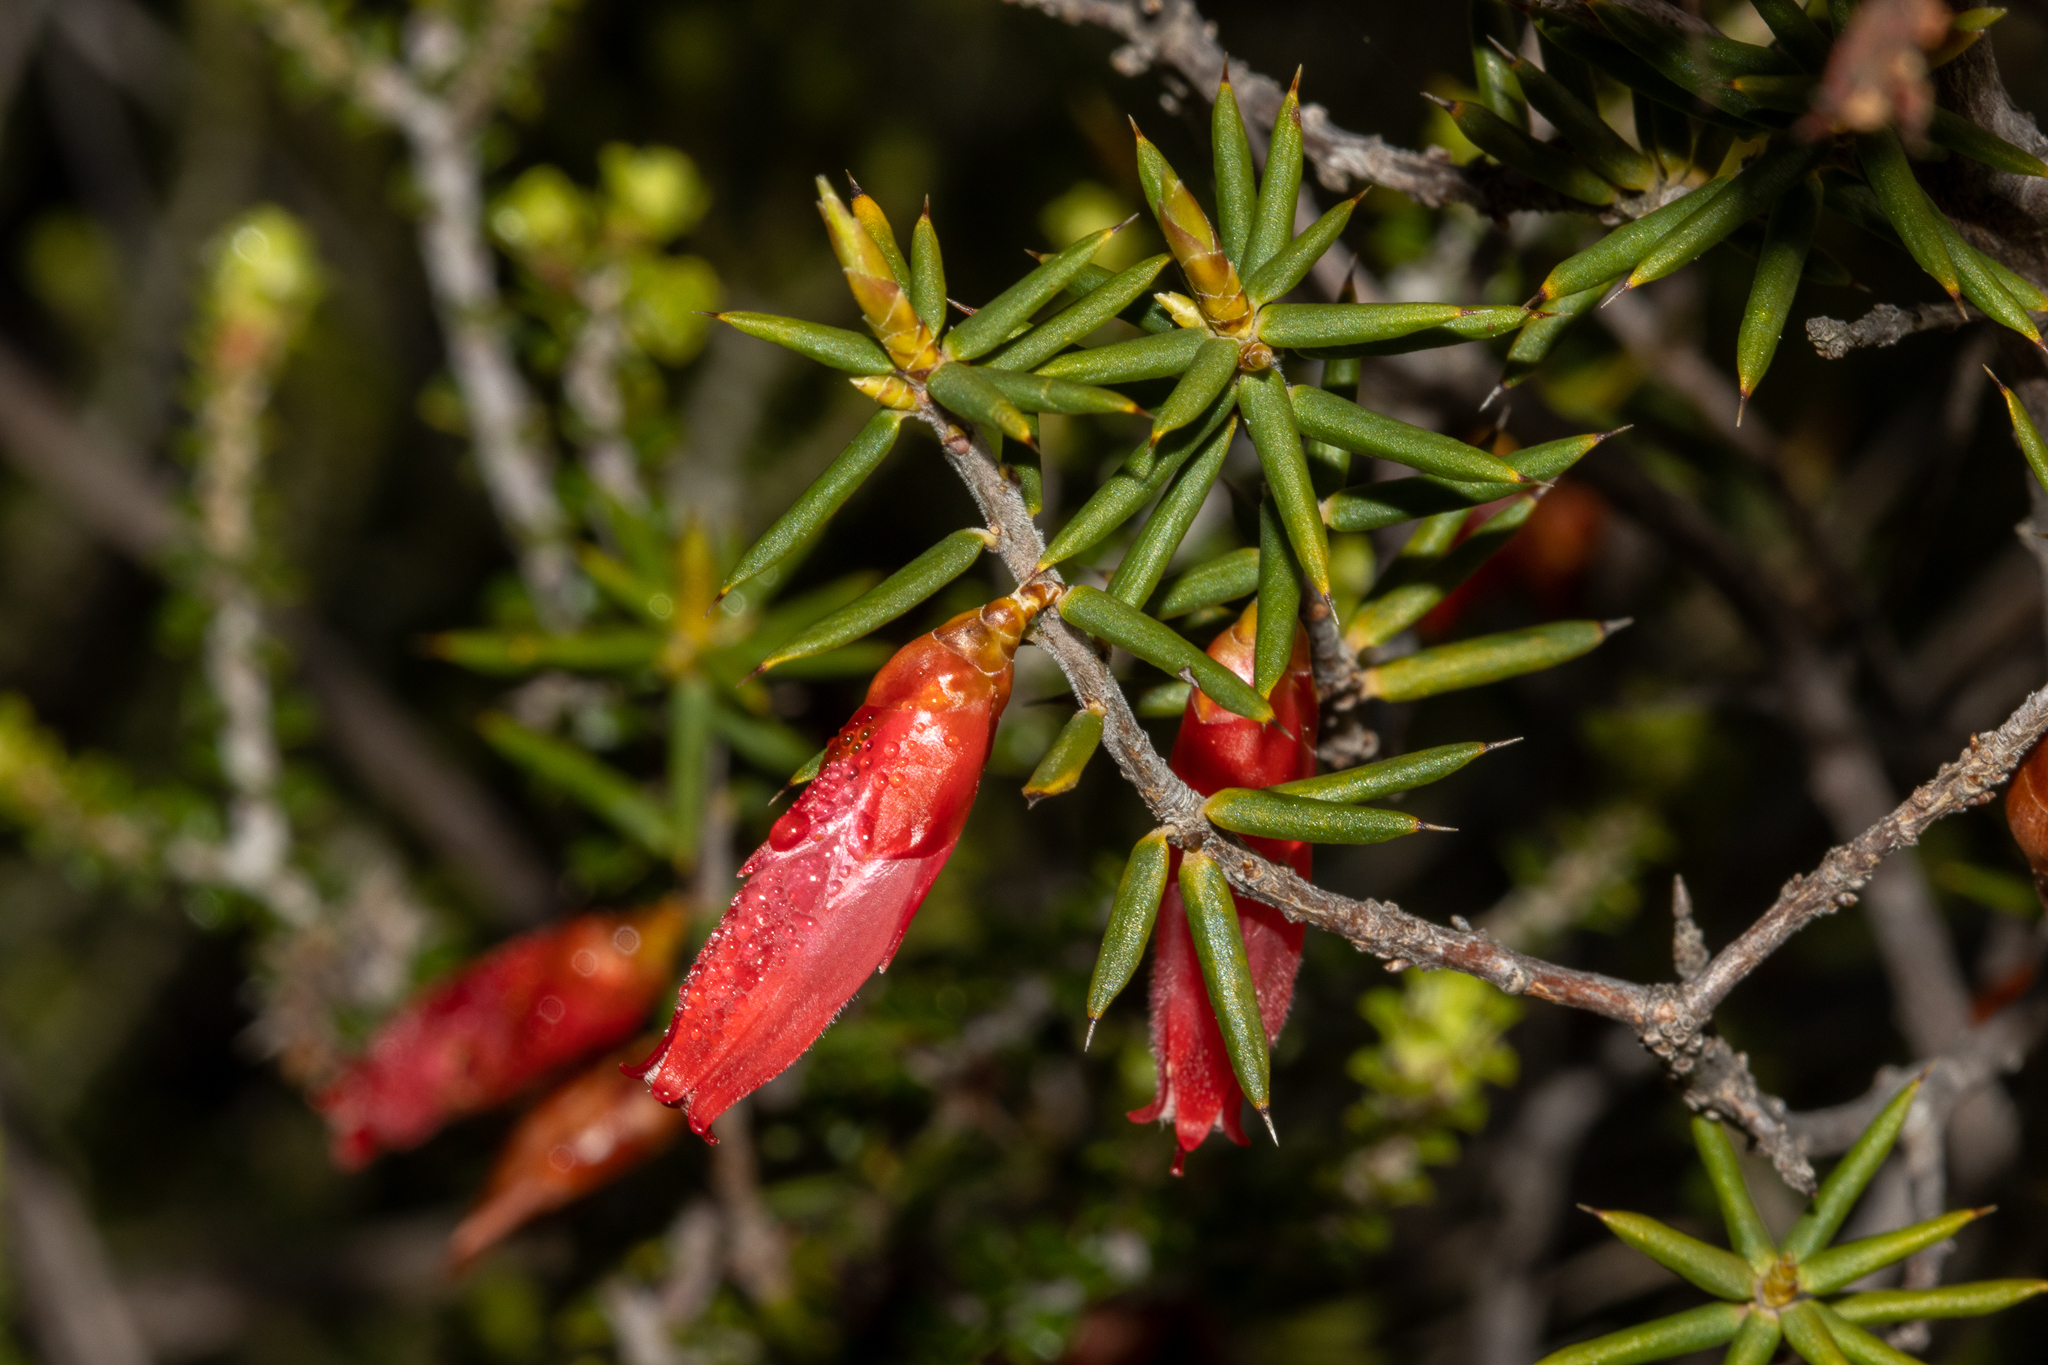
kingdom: Plantae
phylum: Tracheophyta
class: Magnoliopsida
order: Ericales
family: Ericaceae
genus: Stenanthera
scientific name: Stenanthera conostephioides
